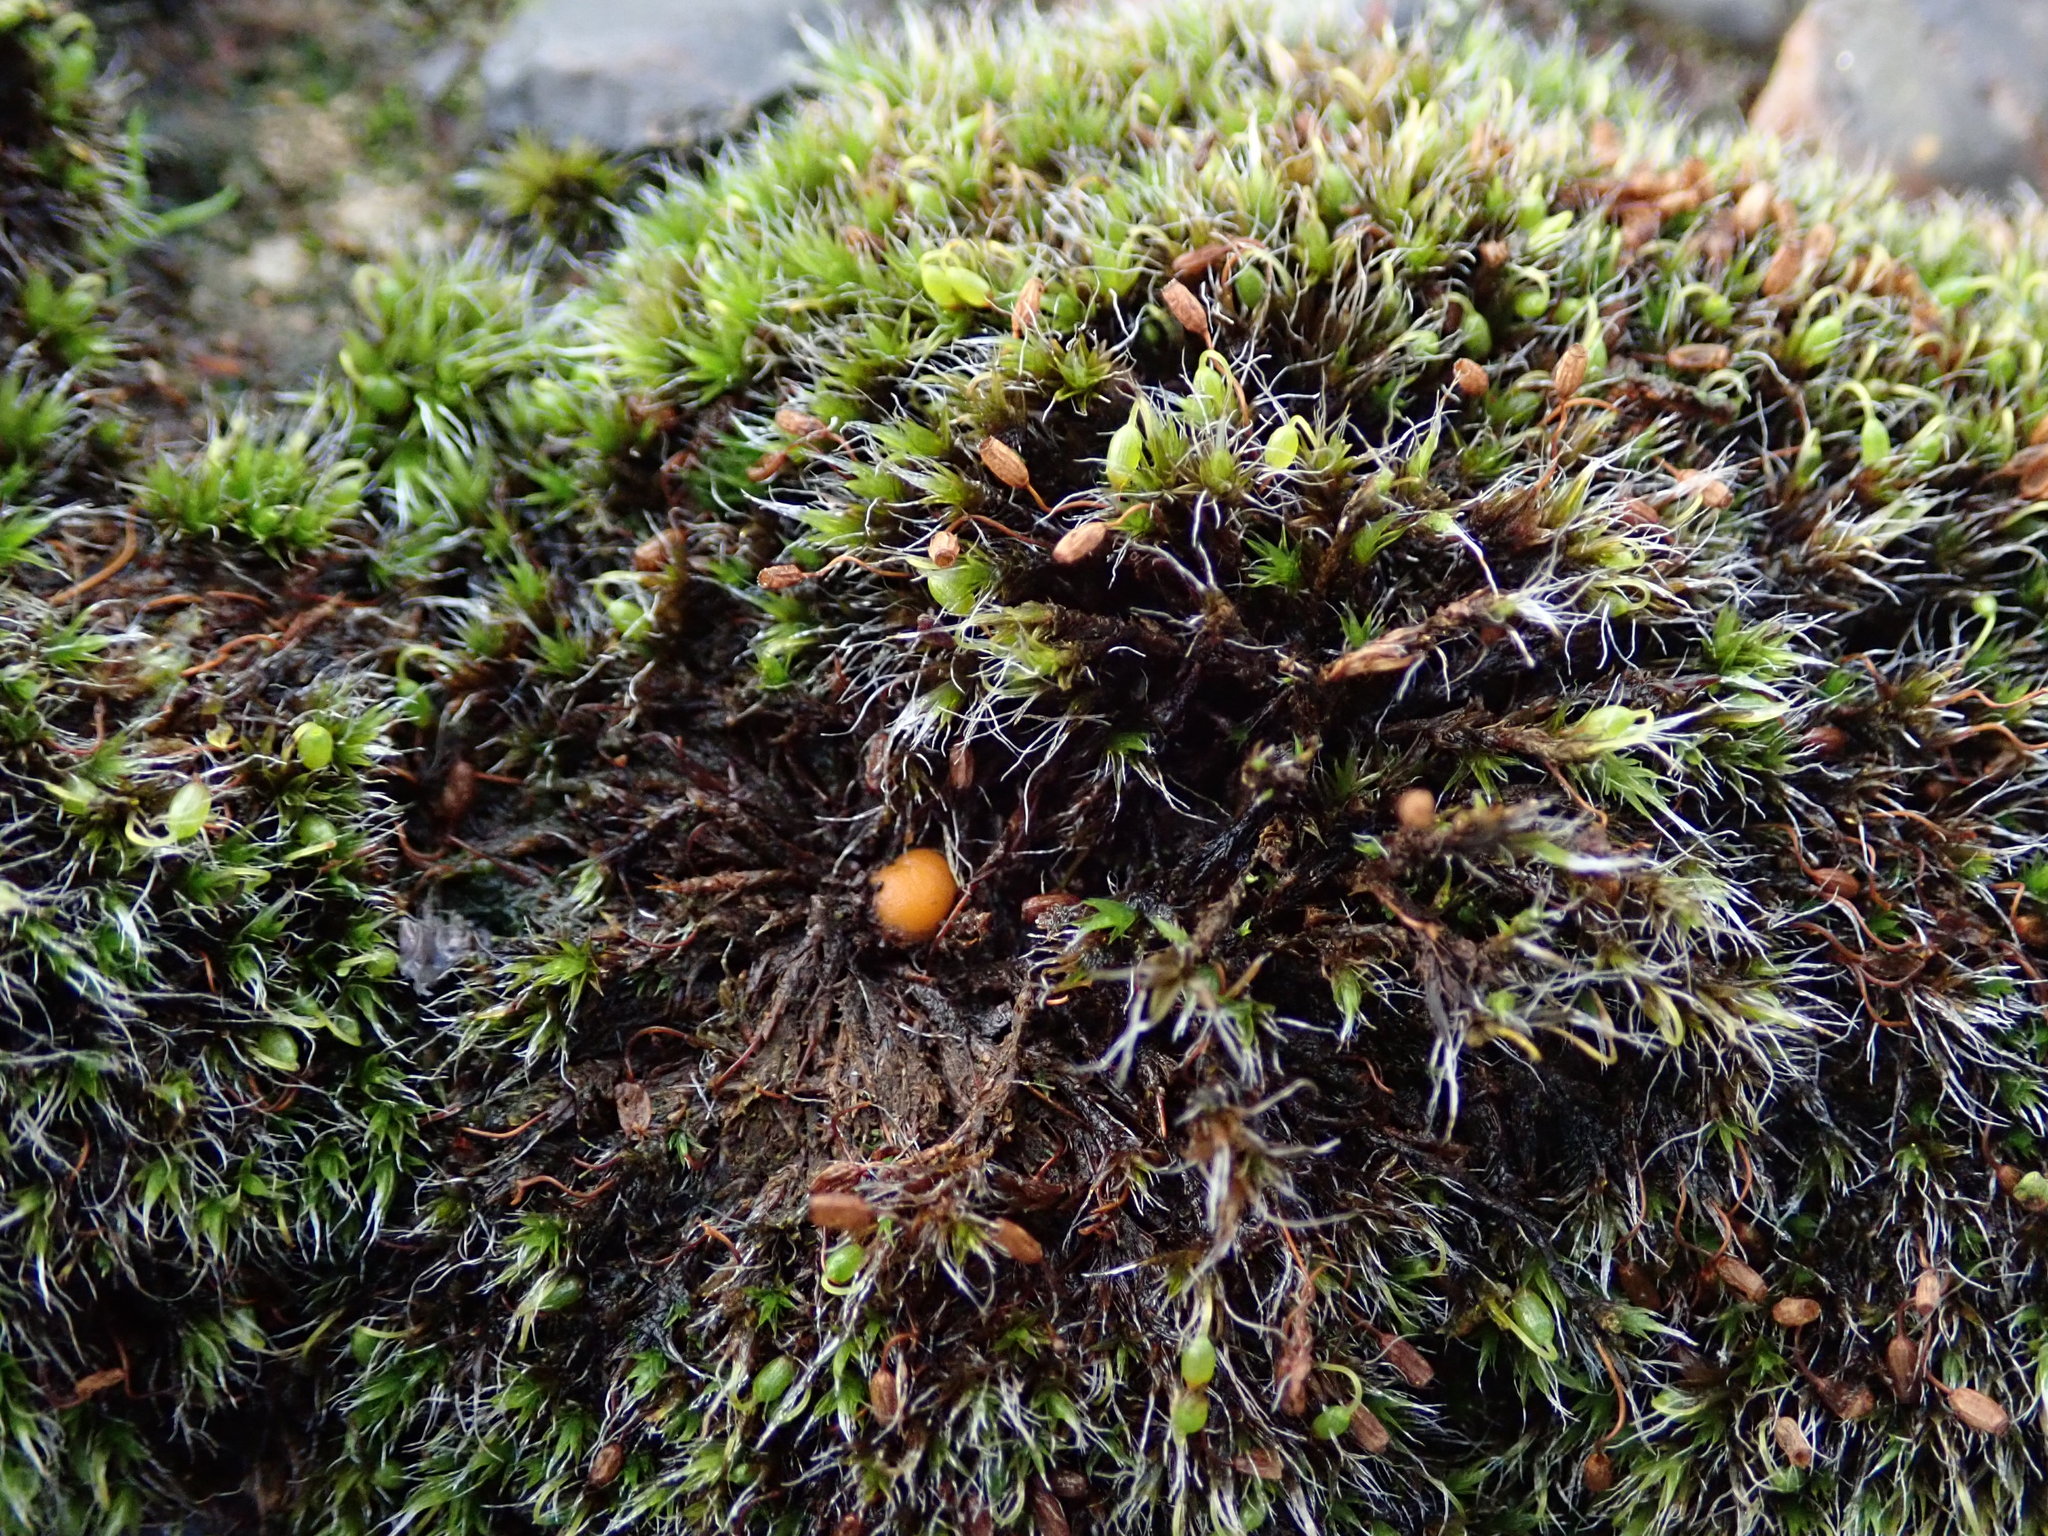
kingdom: Fungi
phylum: Ascomycota
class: Pezizomycetes
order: Pezizales
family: Pyronemataceae
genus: Octospora
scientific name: Octospora musci-muralis
